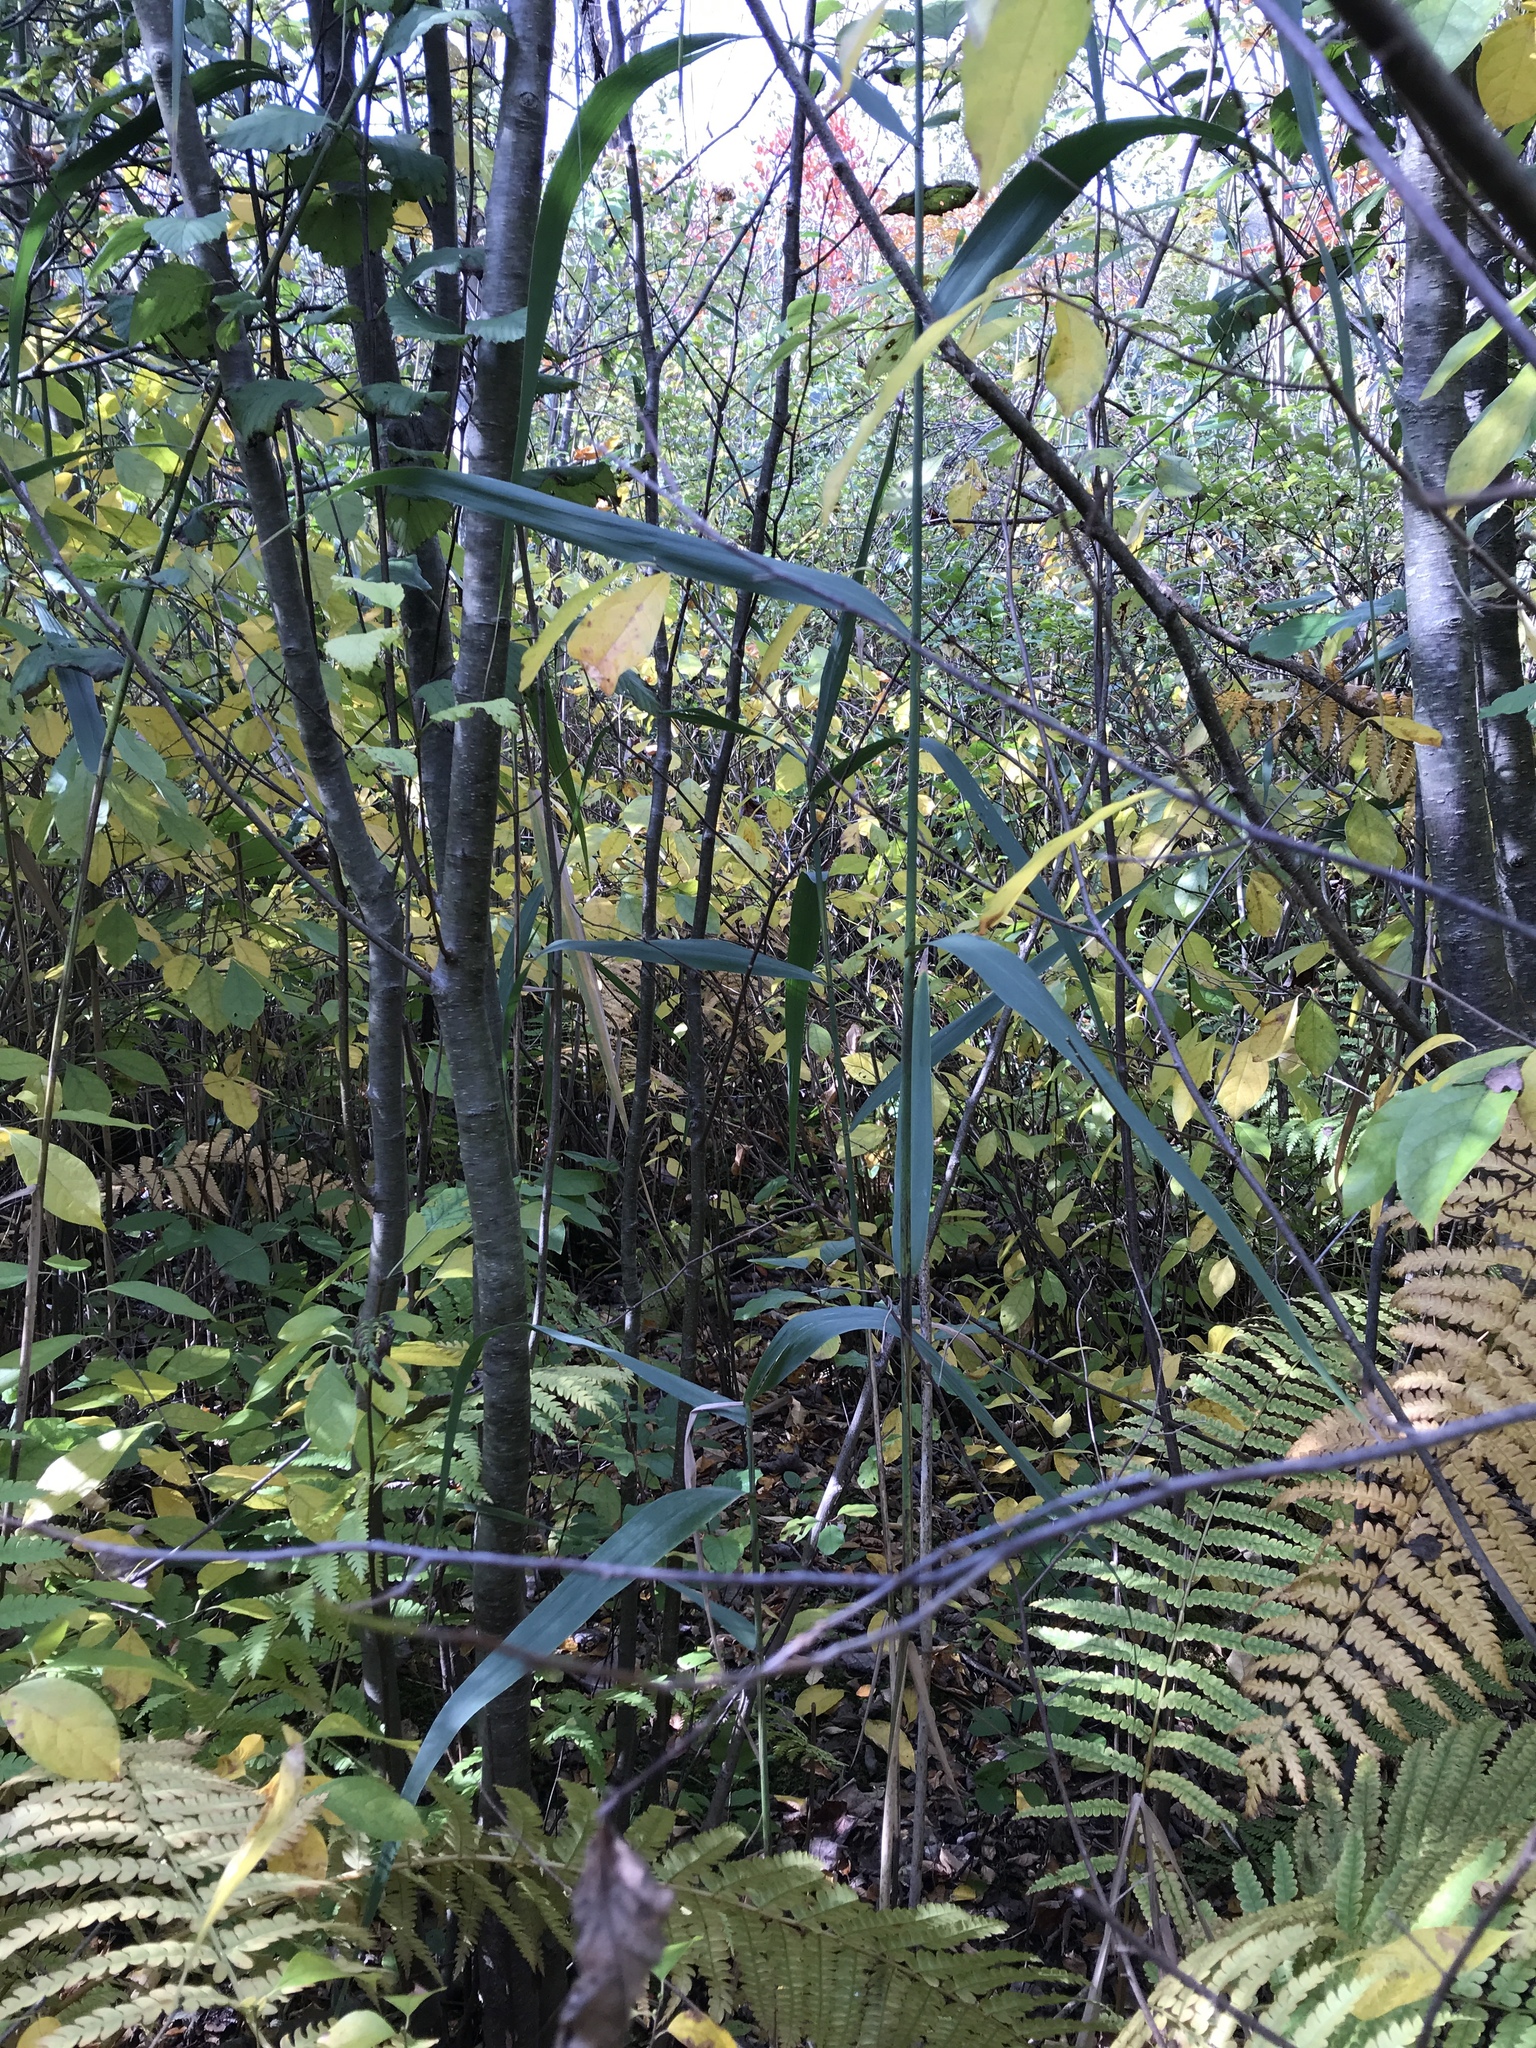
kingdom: Plantae
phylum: Tracheophyta
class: Liliopsida
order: Poales
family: Poaceae
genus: Phragmites
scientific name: Phragmites australis
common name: Common reed
